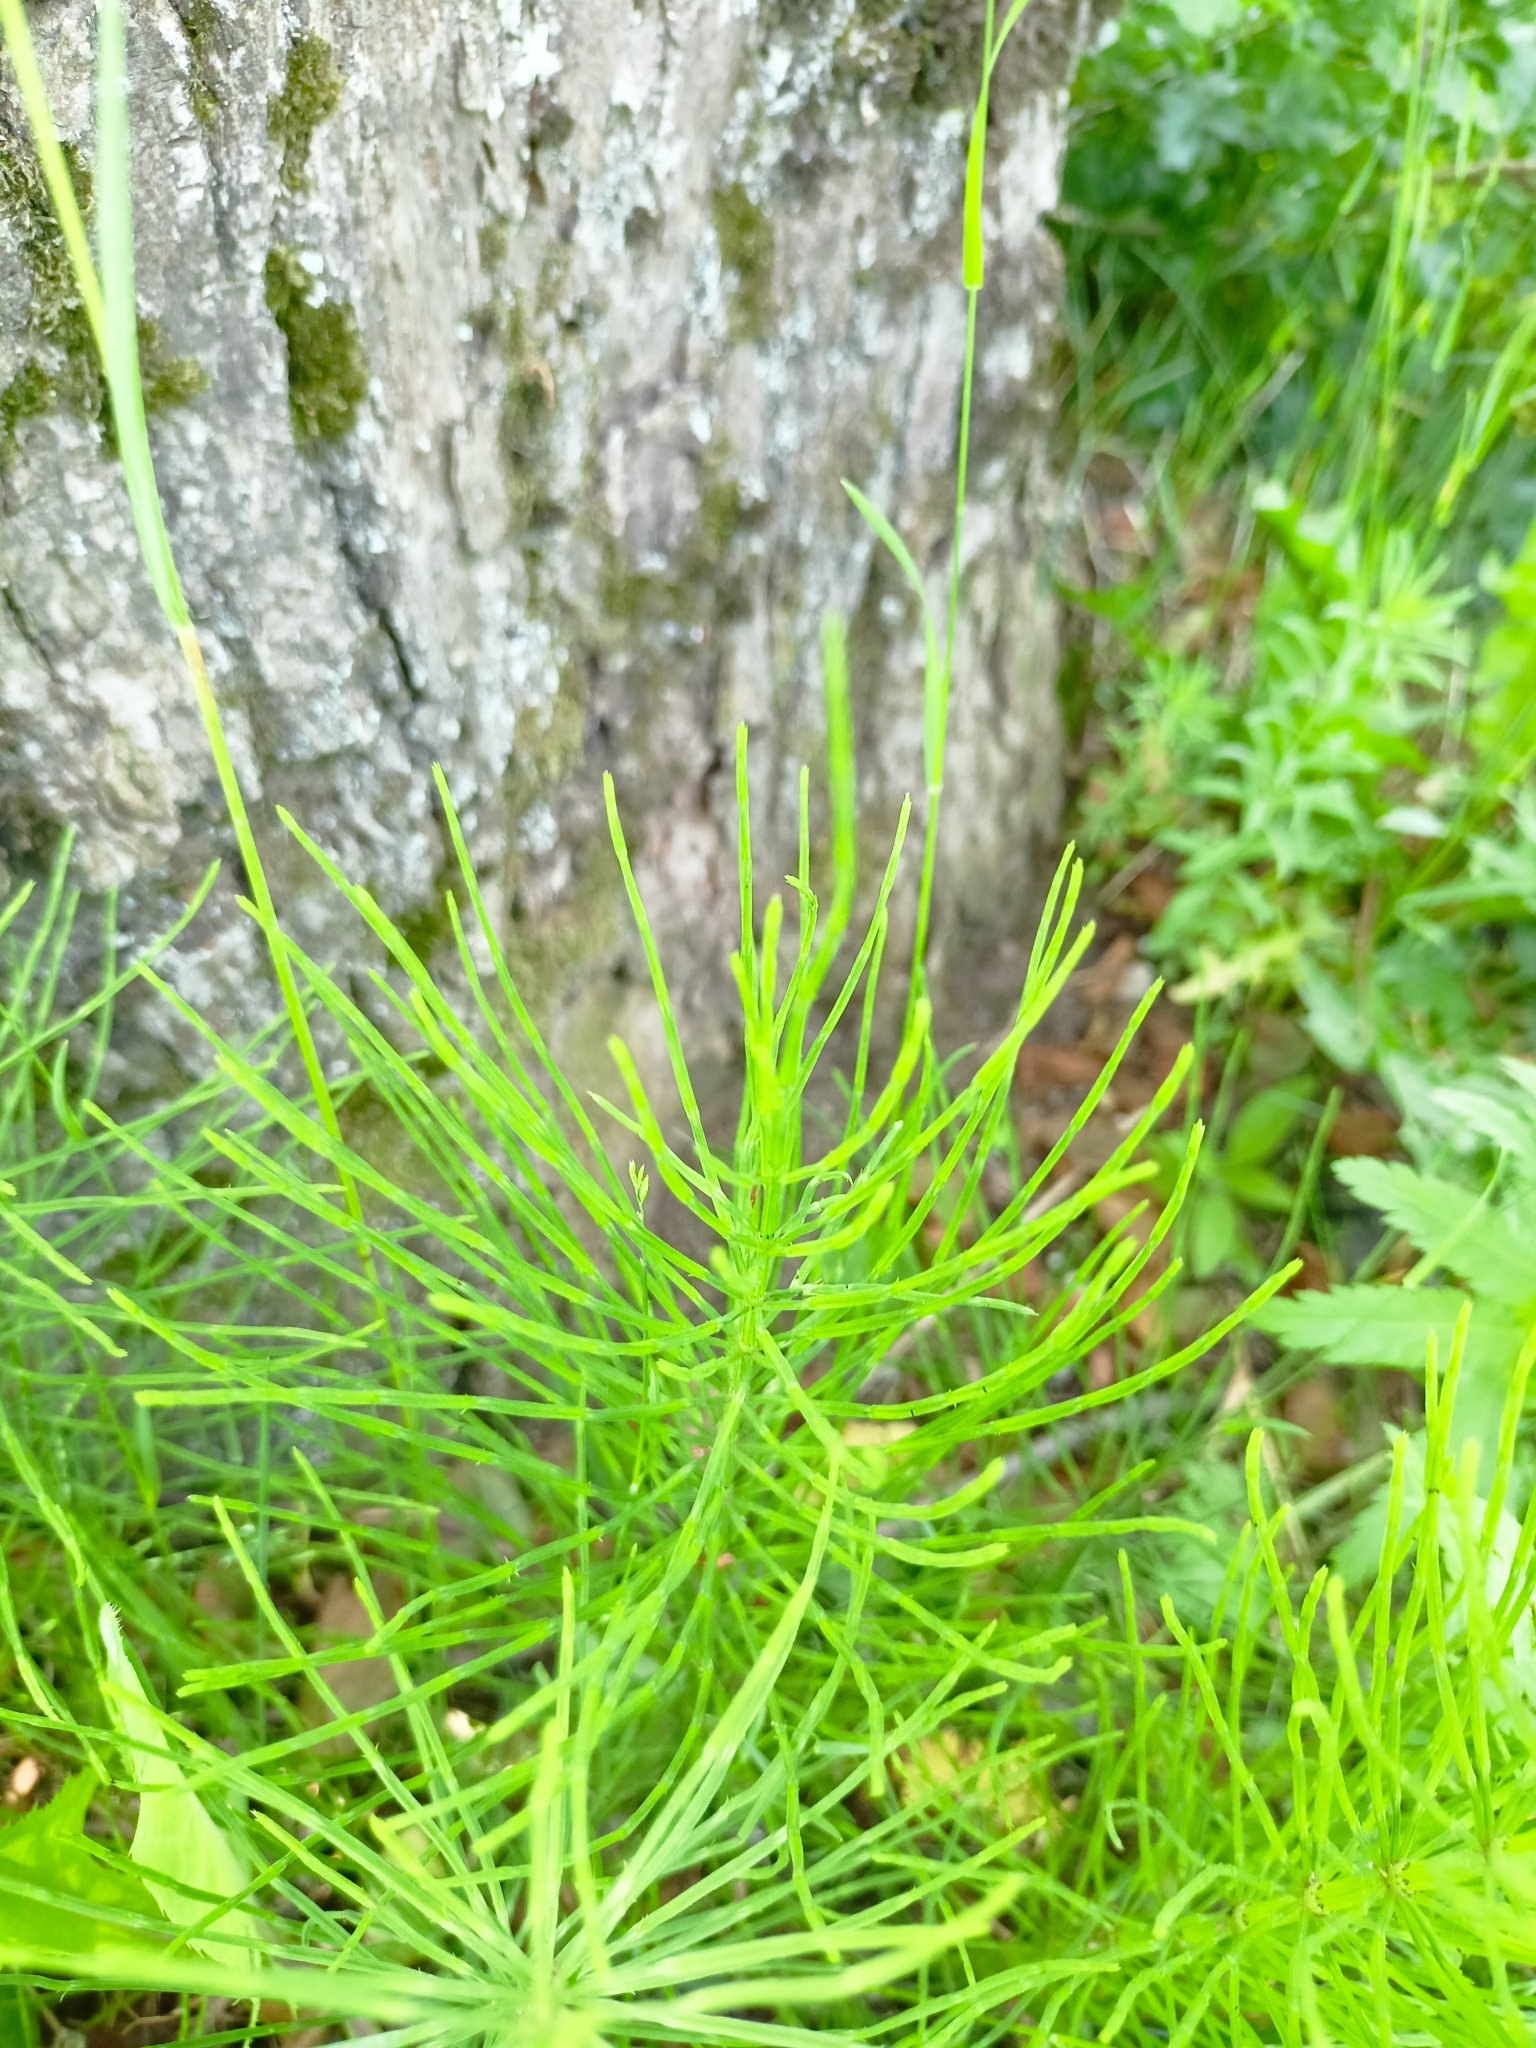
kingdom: Plantae
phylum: Tracheophyta
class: Polypodiopsida
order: Equisetales
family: Equisetaceae
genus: Equisetum
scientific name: Equisetum arvense
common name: Field horsetail
